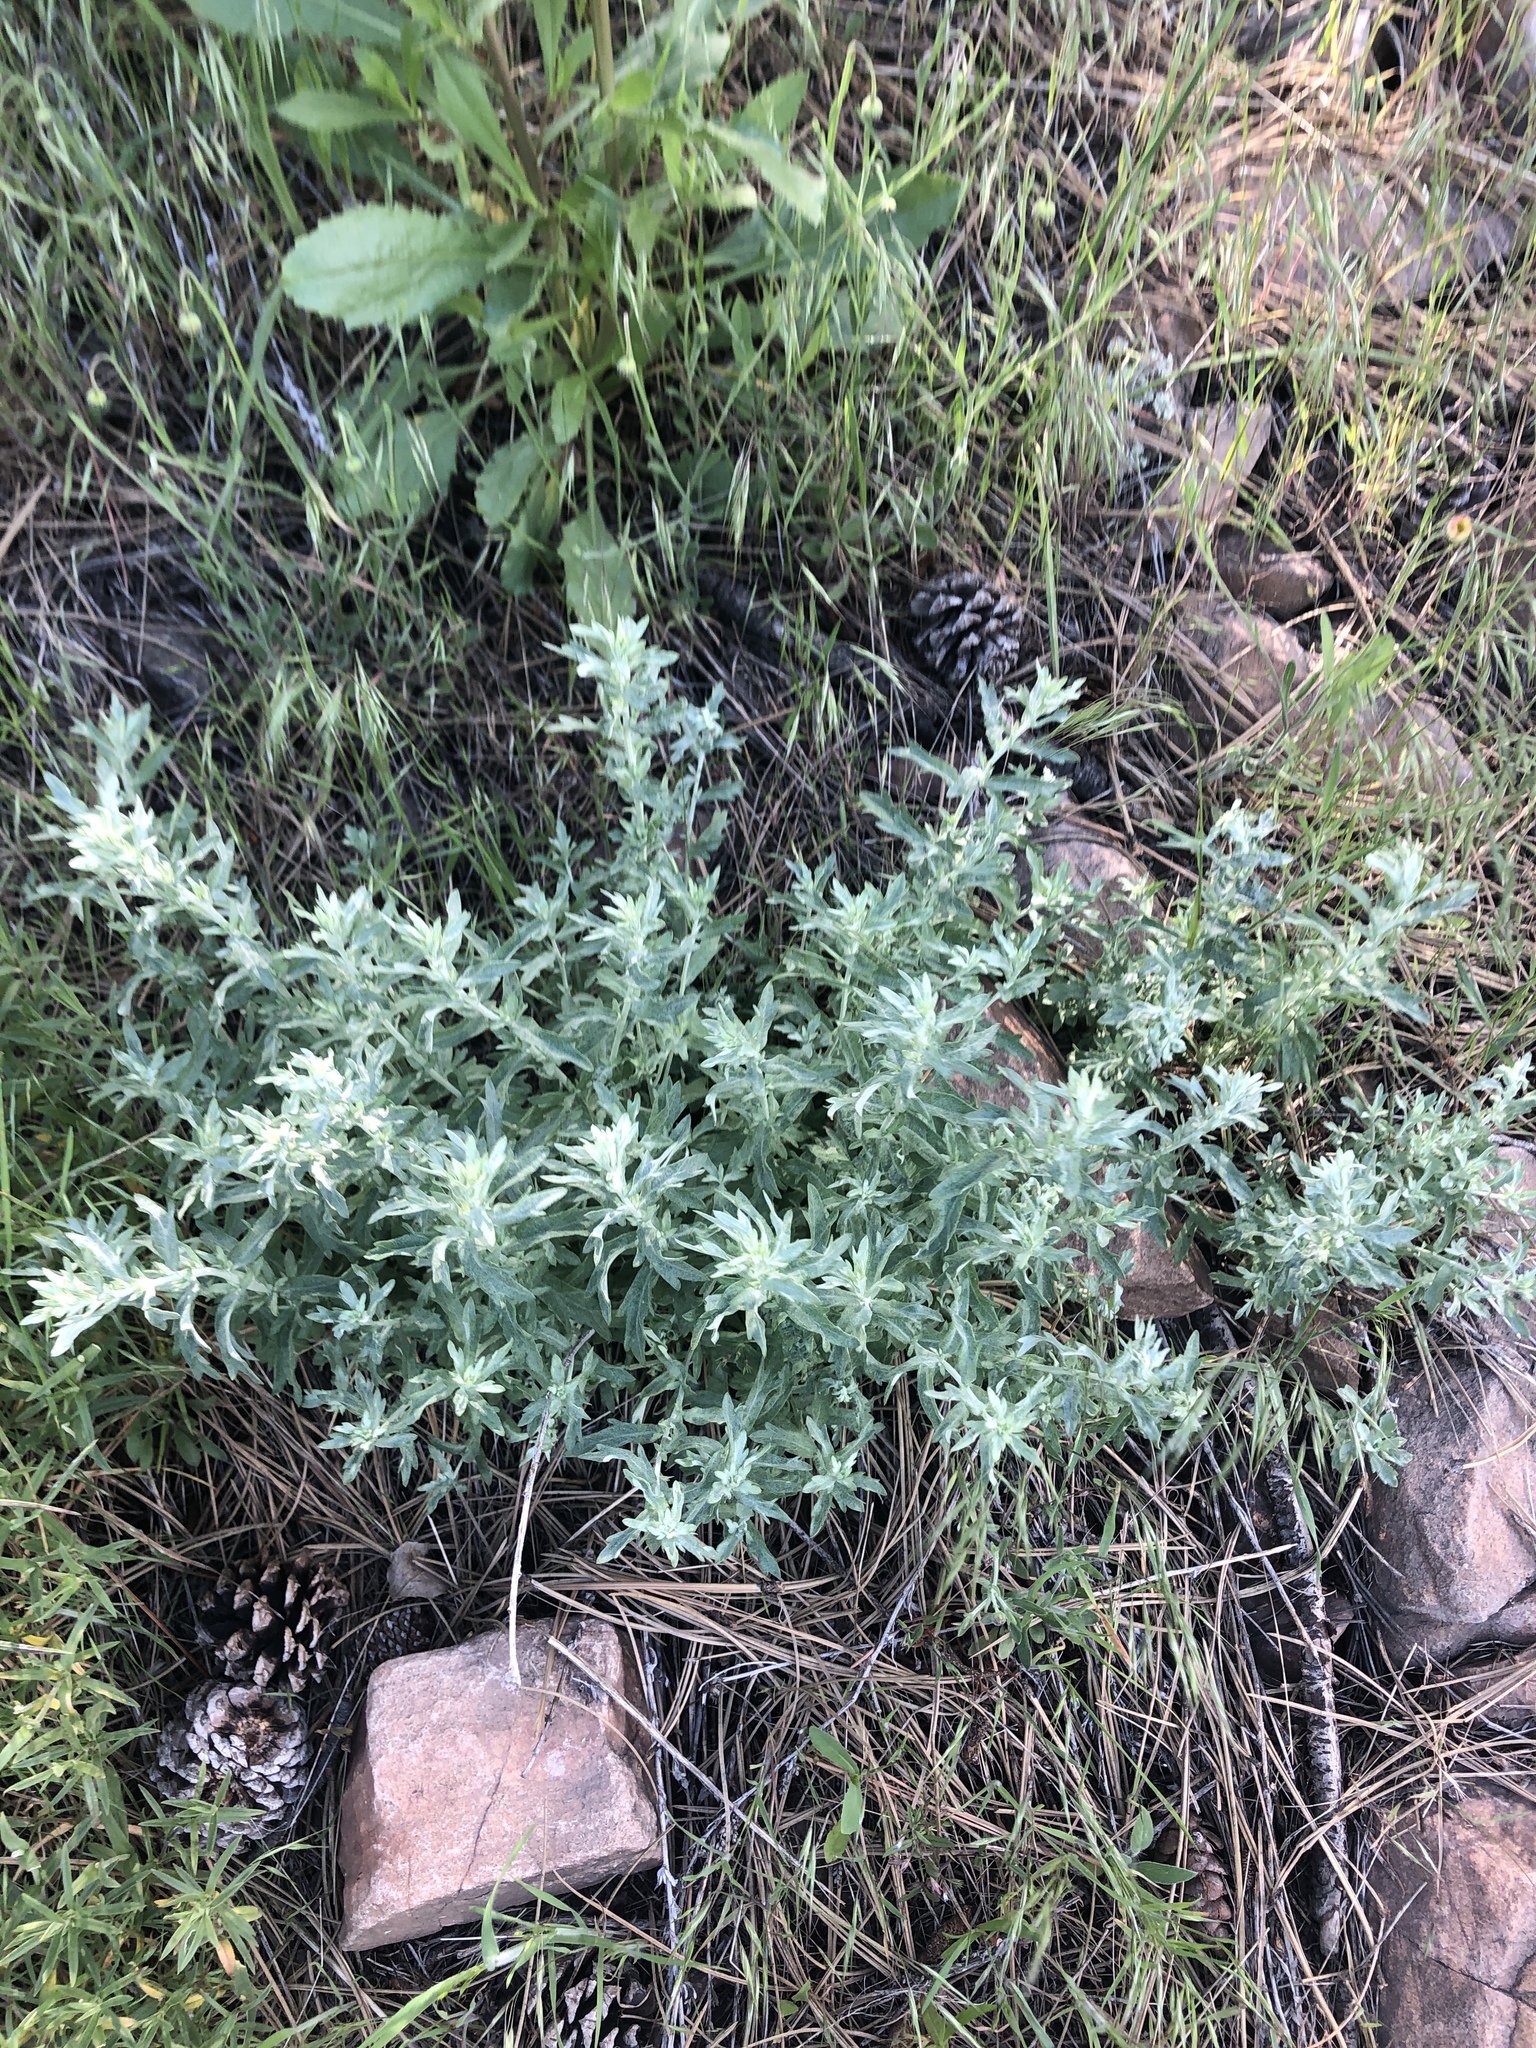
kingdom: Plantae
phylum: Tracheophyta
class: Magnoliopsida
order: Asterales
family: Asteraceae
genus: Artemisia
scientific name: Artemisia ludoviciana
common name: Western mugwort
